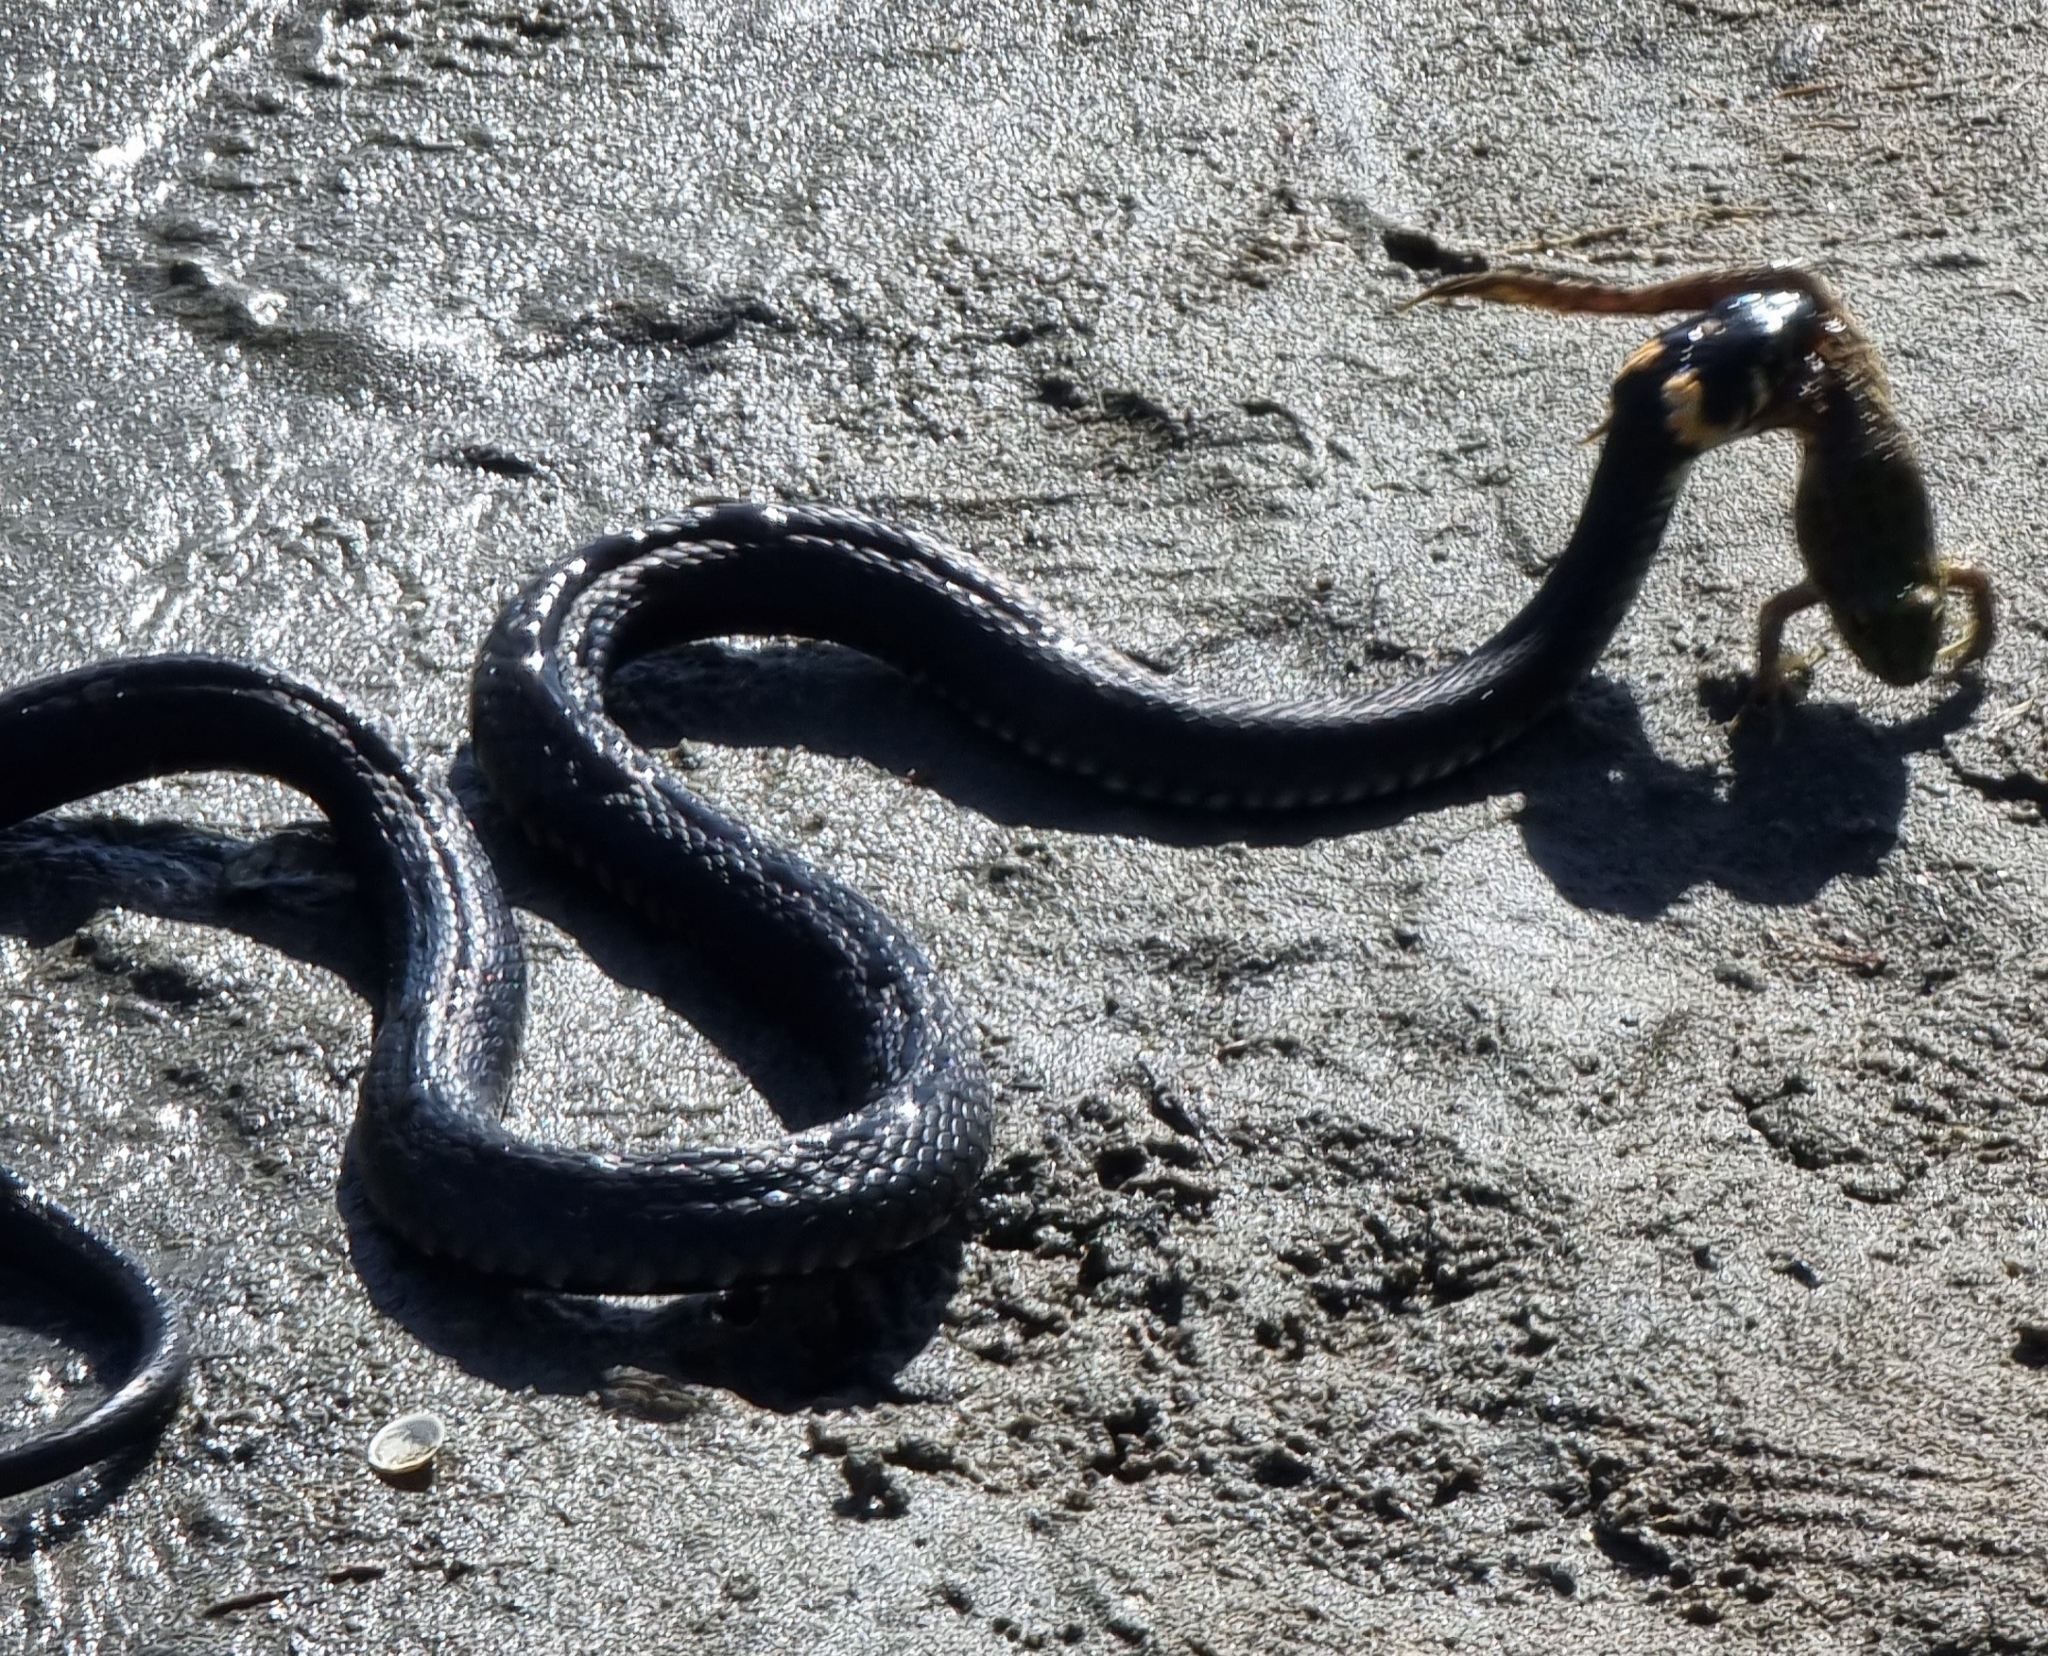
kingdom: Animalia
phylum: Chordata
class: Squamata
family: Colubridae
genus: Natrix
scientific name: Natrix natrix
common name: Grass snake
